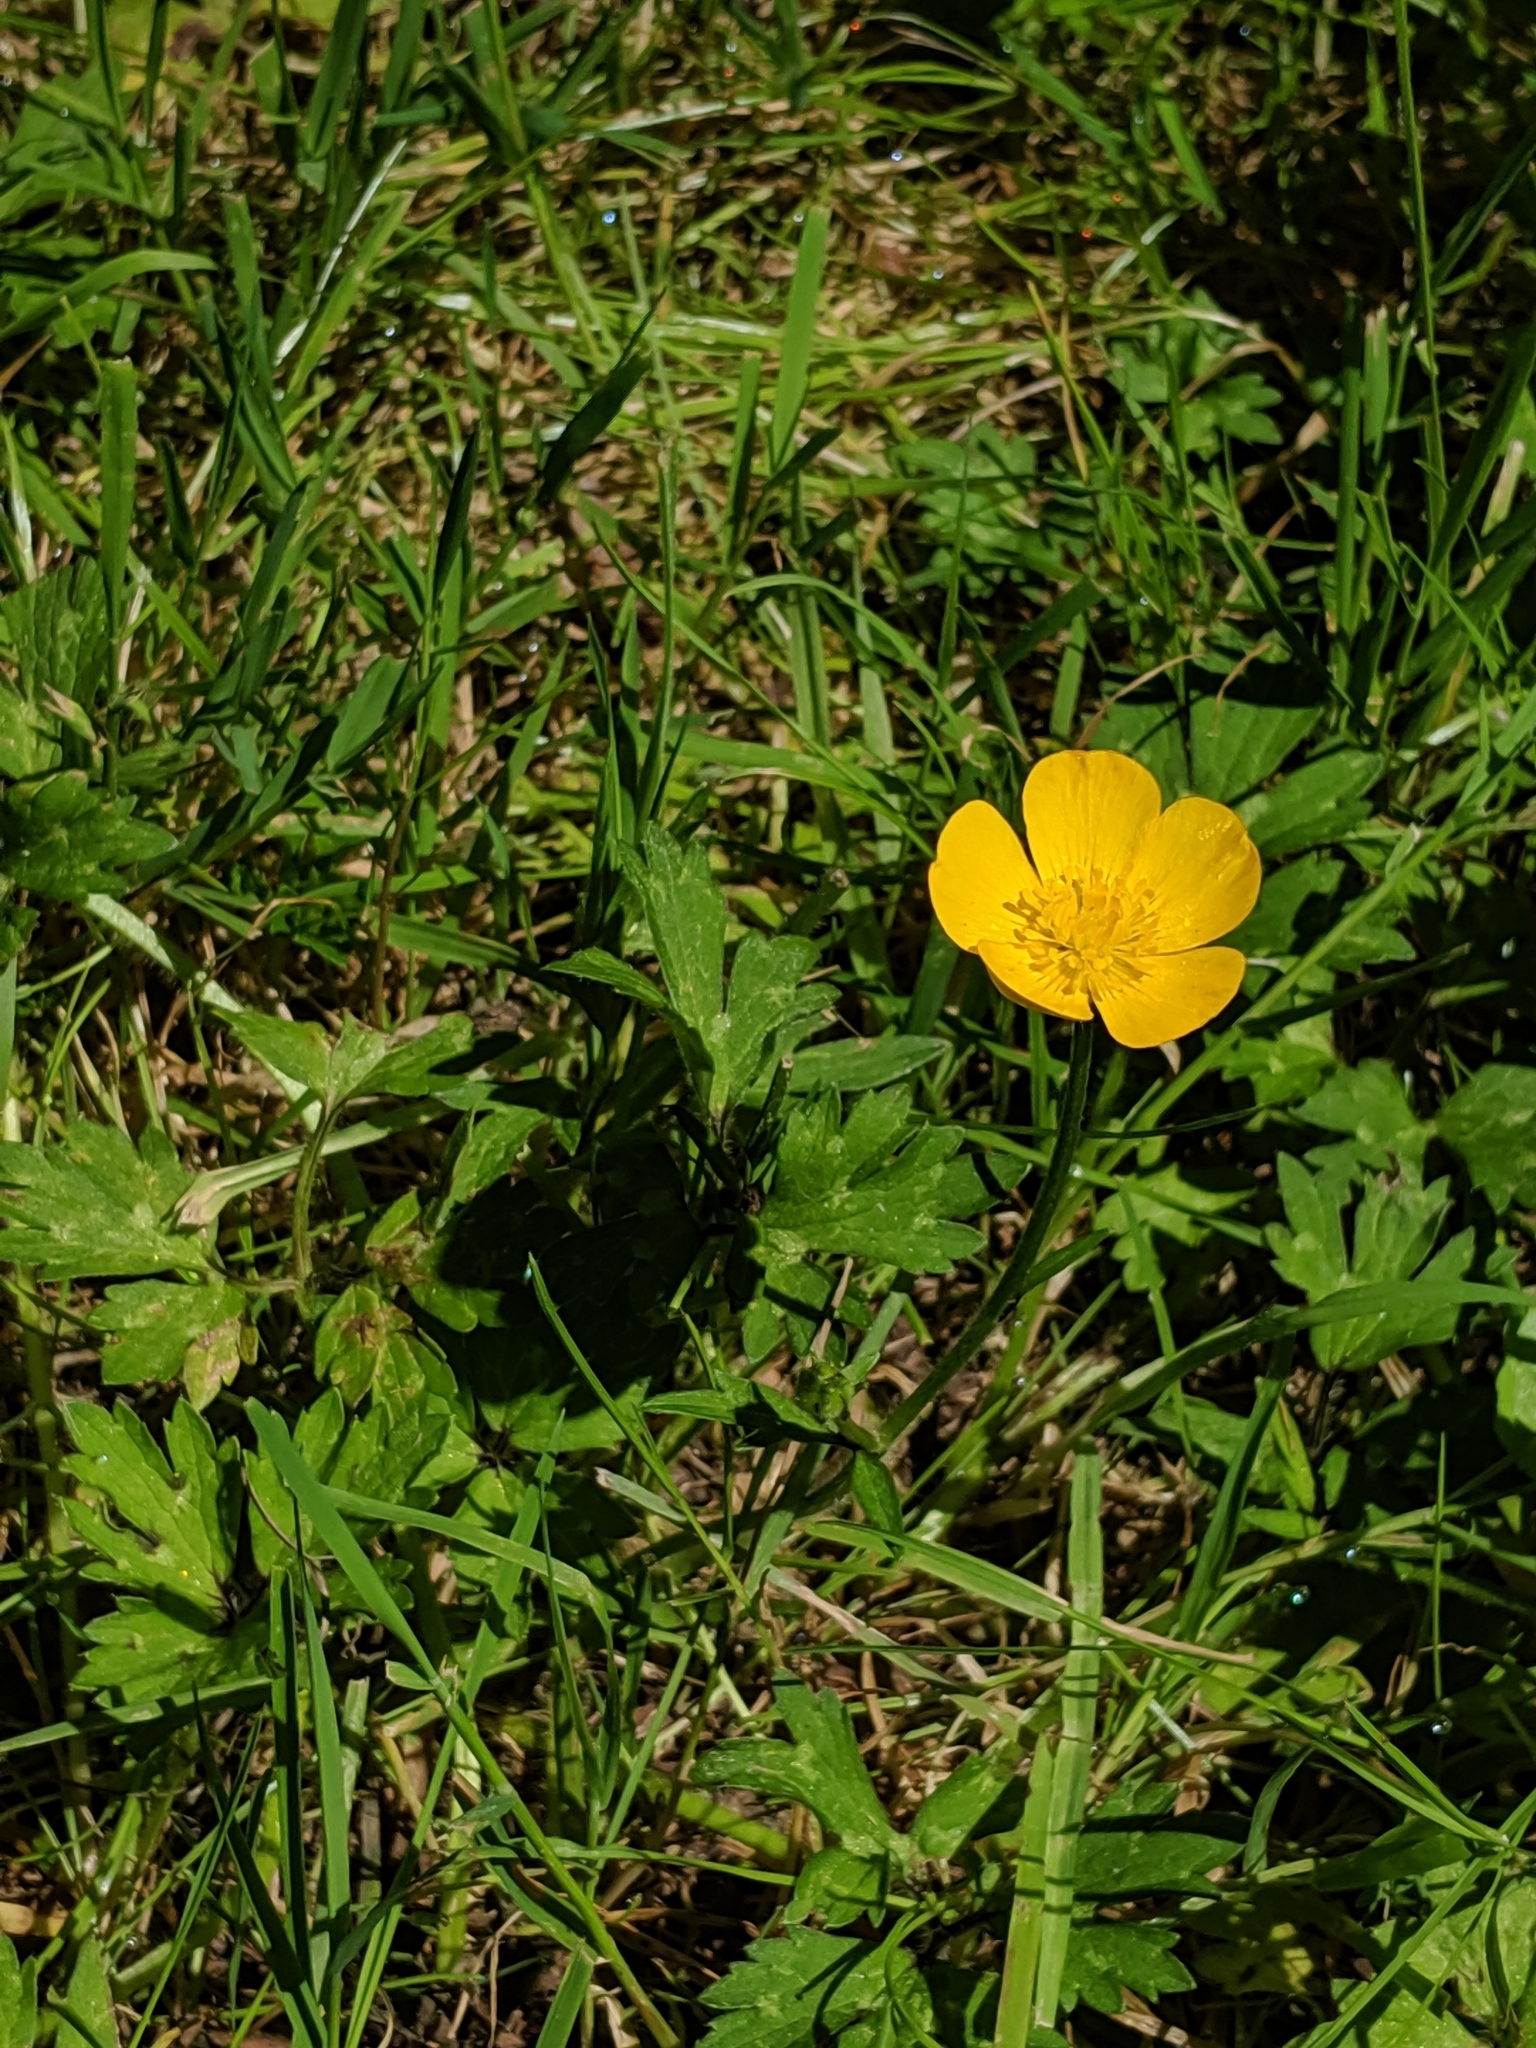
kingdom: Plantae
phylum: Tracheophyta
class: Magnoliopsida
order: Ranunculales
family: Ranunculaceae
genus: Ranunculus
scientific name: Ranunculus repens
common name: Creeping buttercup
